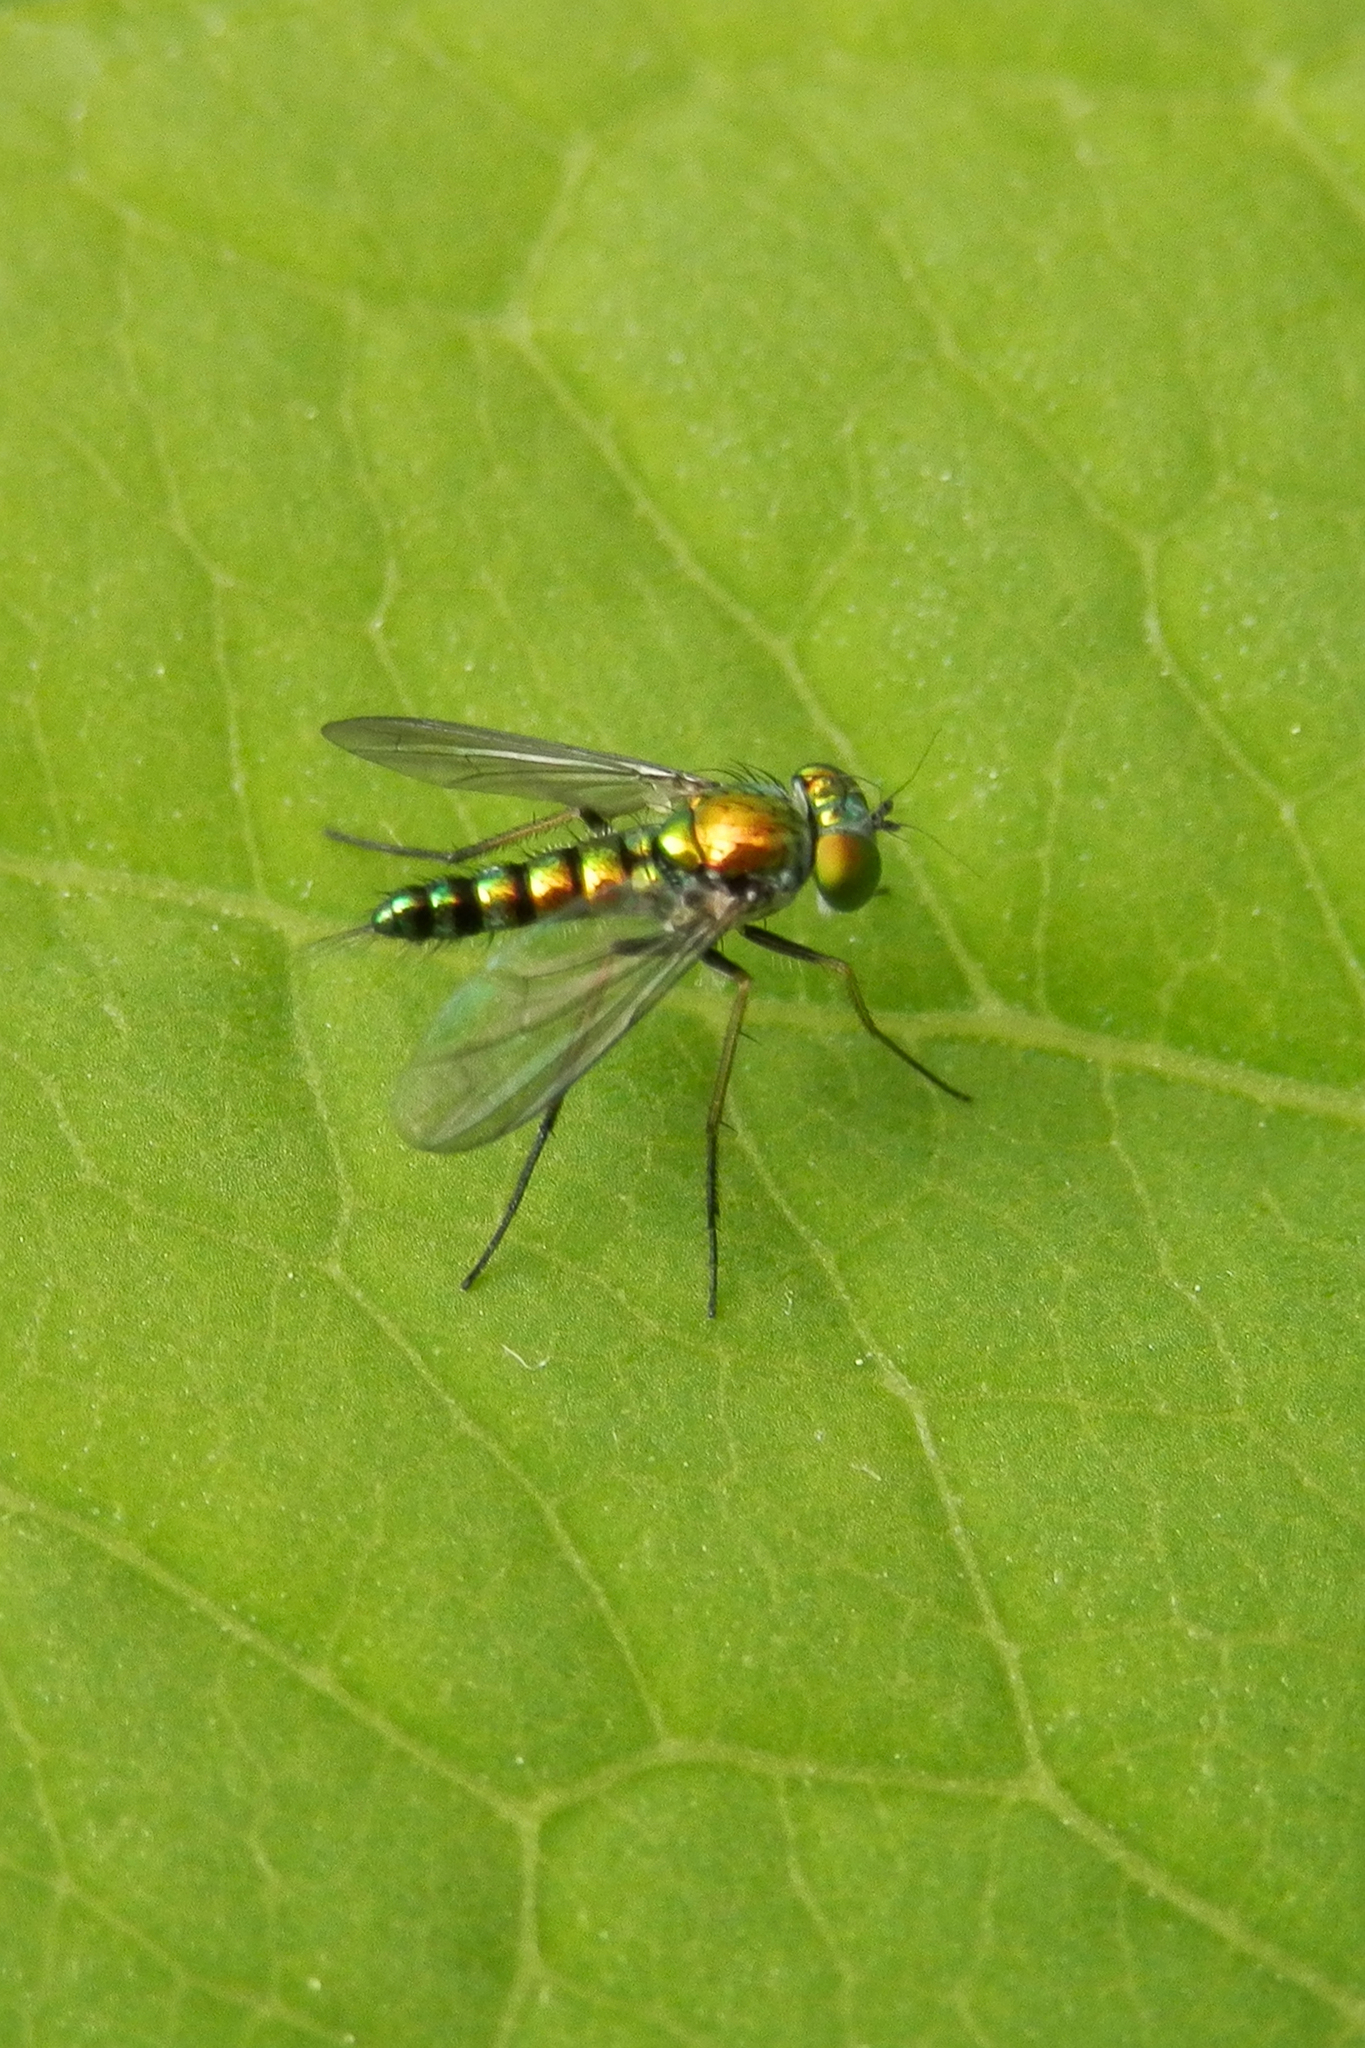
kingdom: Animalia
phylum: Arthropoda
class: Insecta
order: Diptera
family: Dolichopodidae
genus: Condylostylus
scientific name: Condylostylus caudatus
